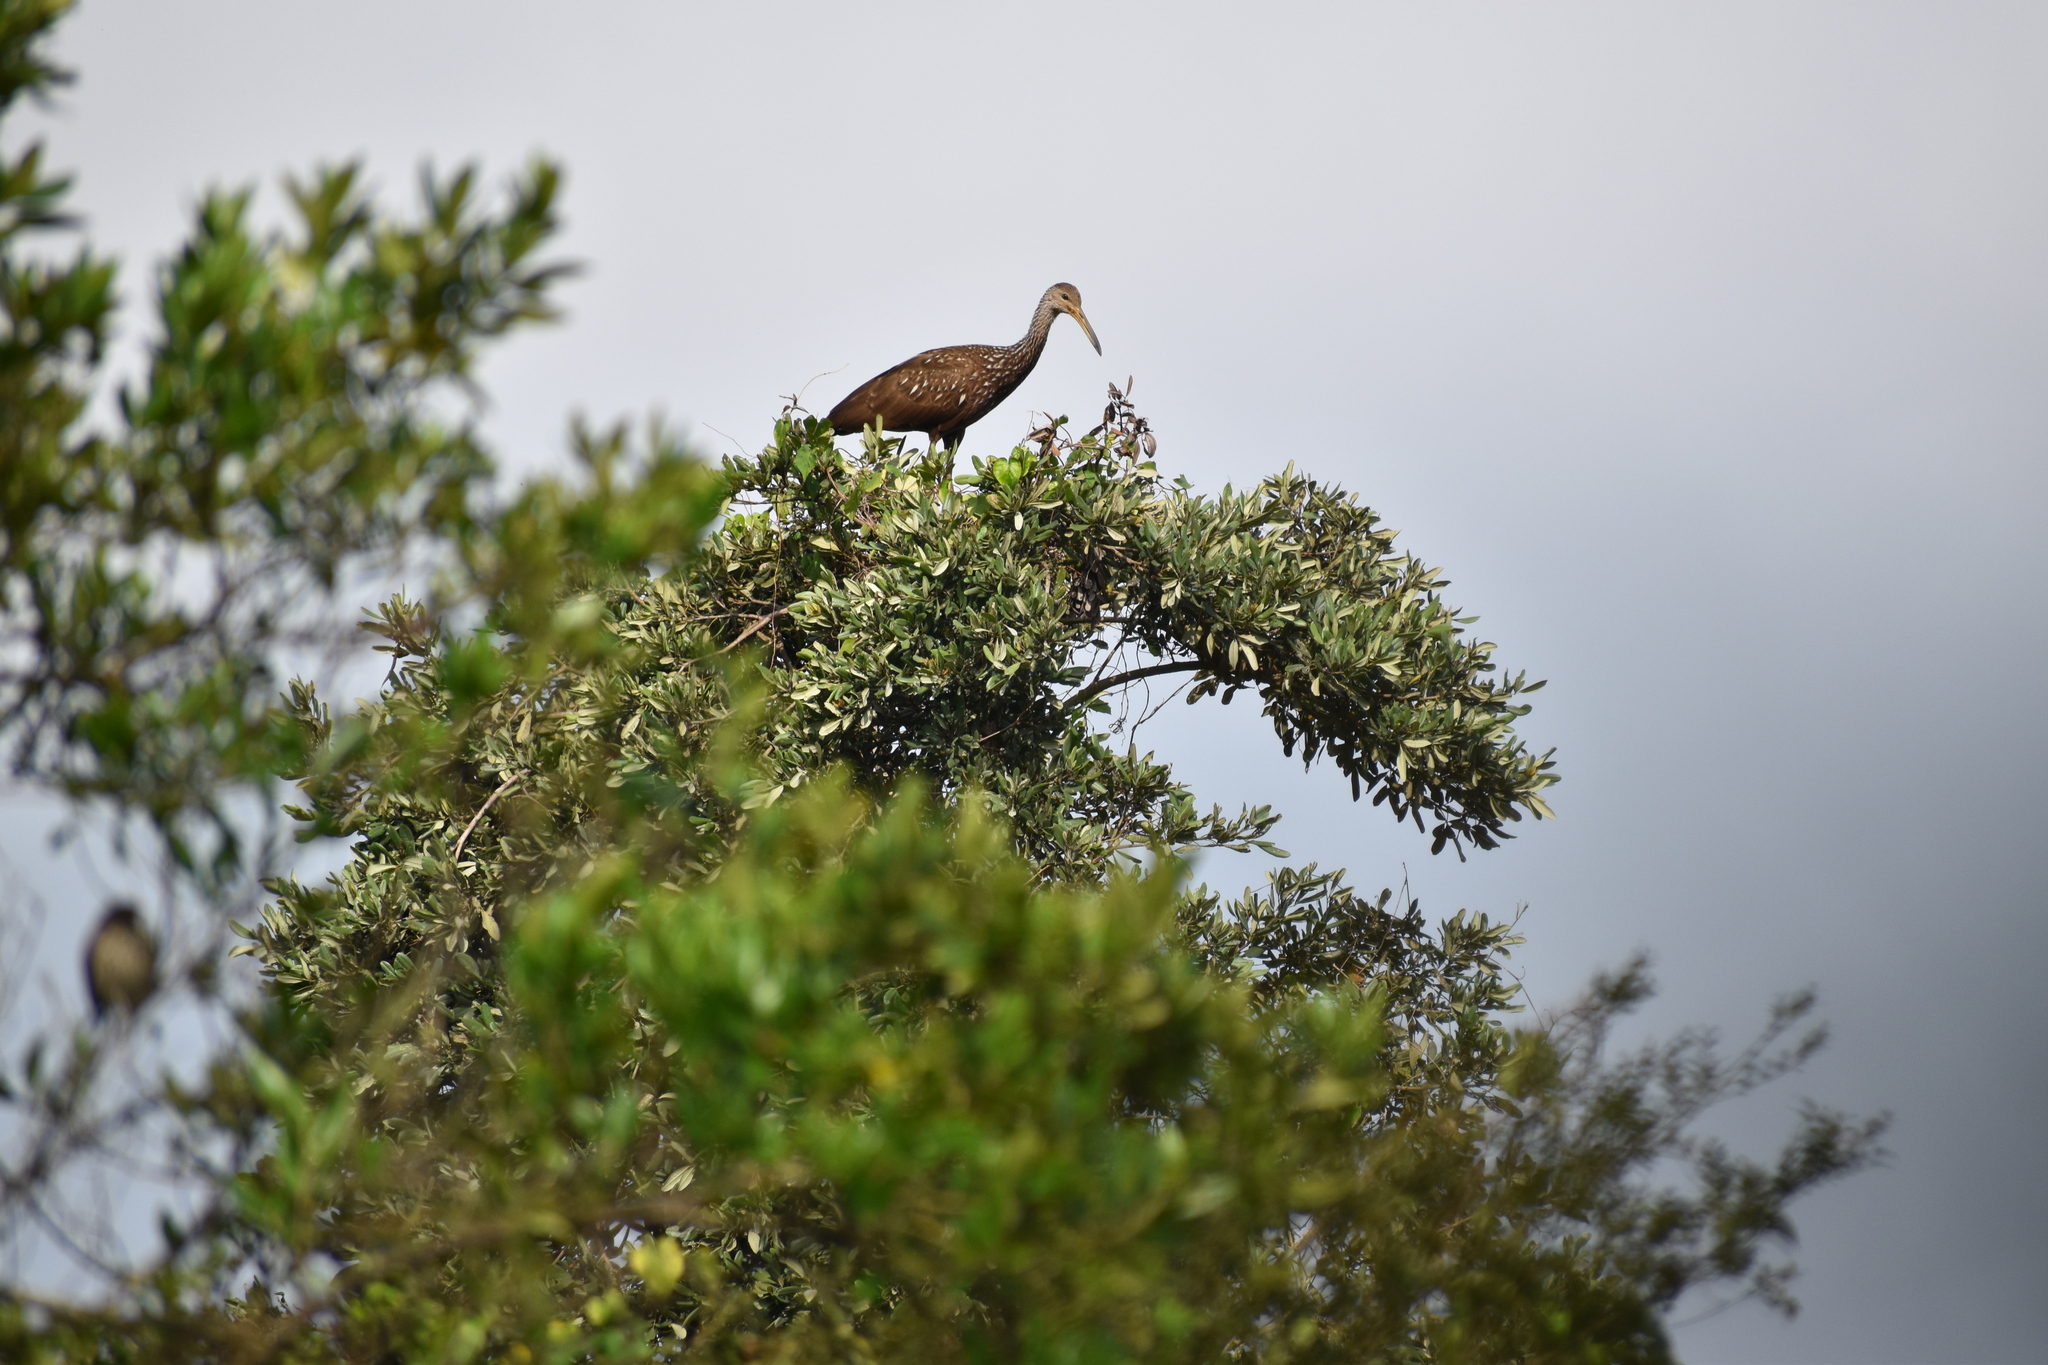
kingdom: Animalia
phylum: Chordata
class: Aves
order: Gruiformes
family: Aramidae
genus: Aramus
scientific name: Aramus guarauna
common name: Limpkin
